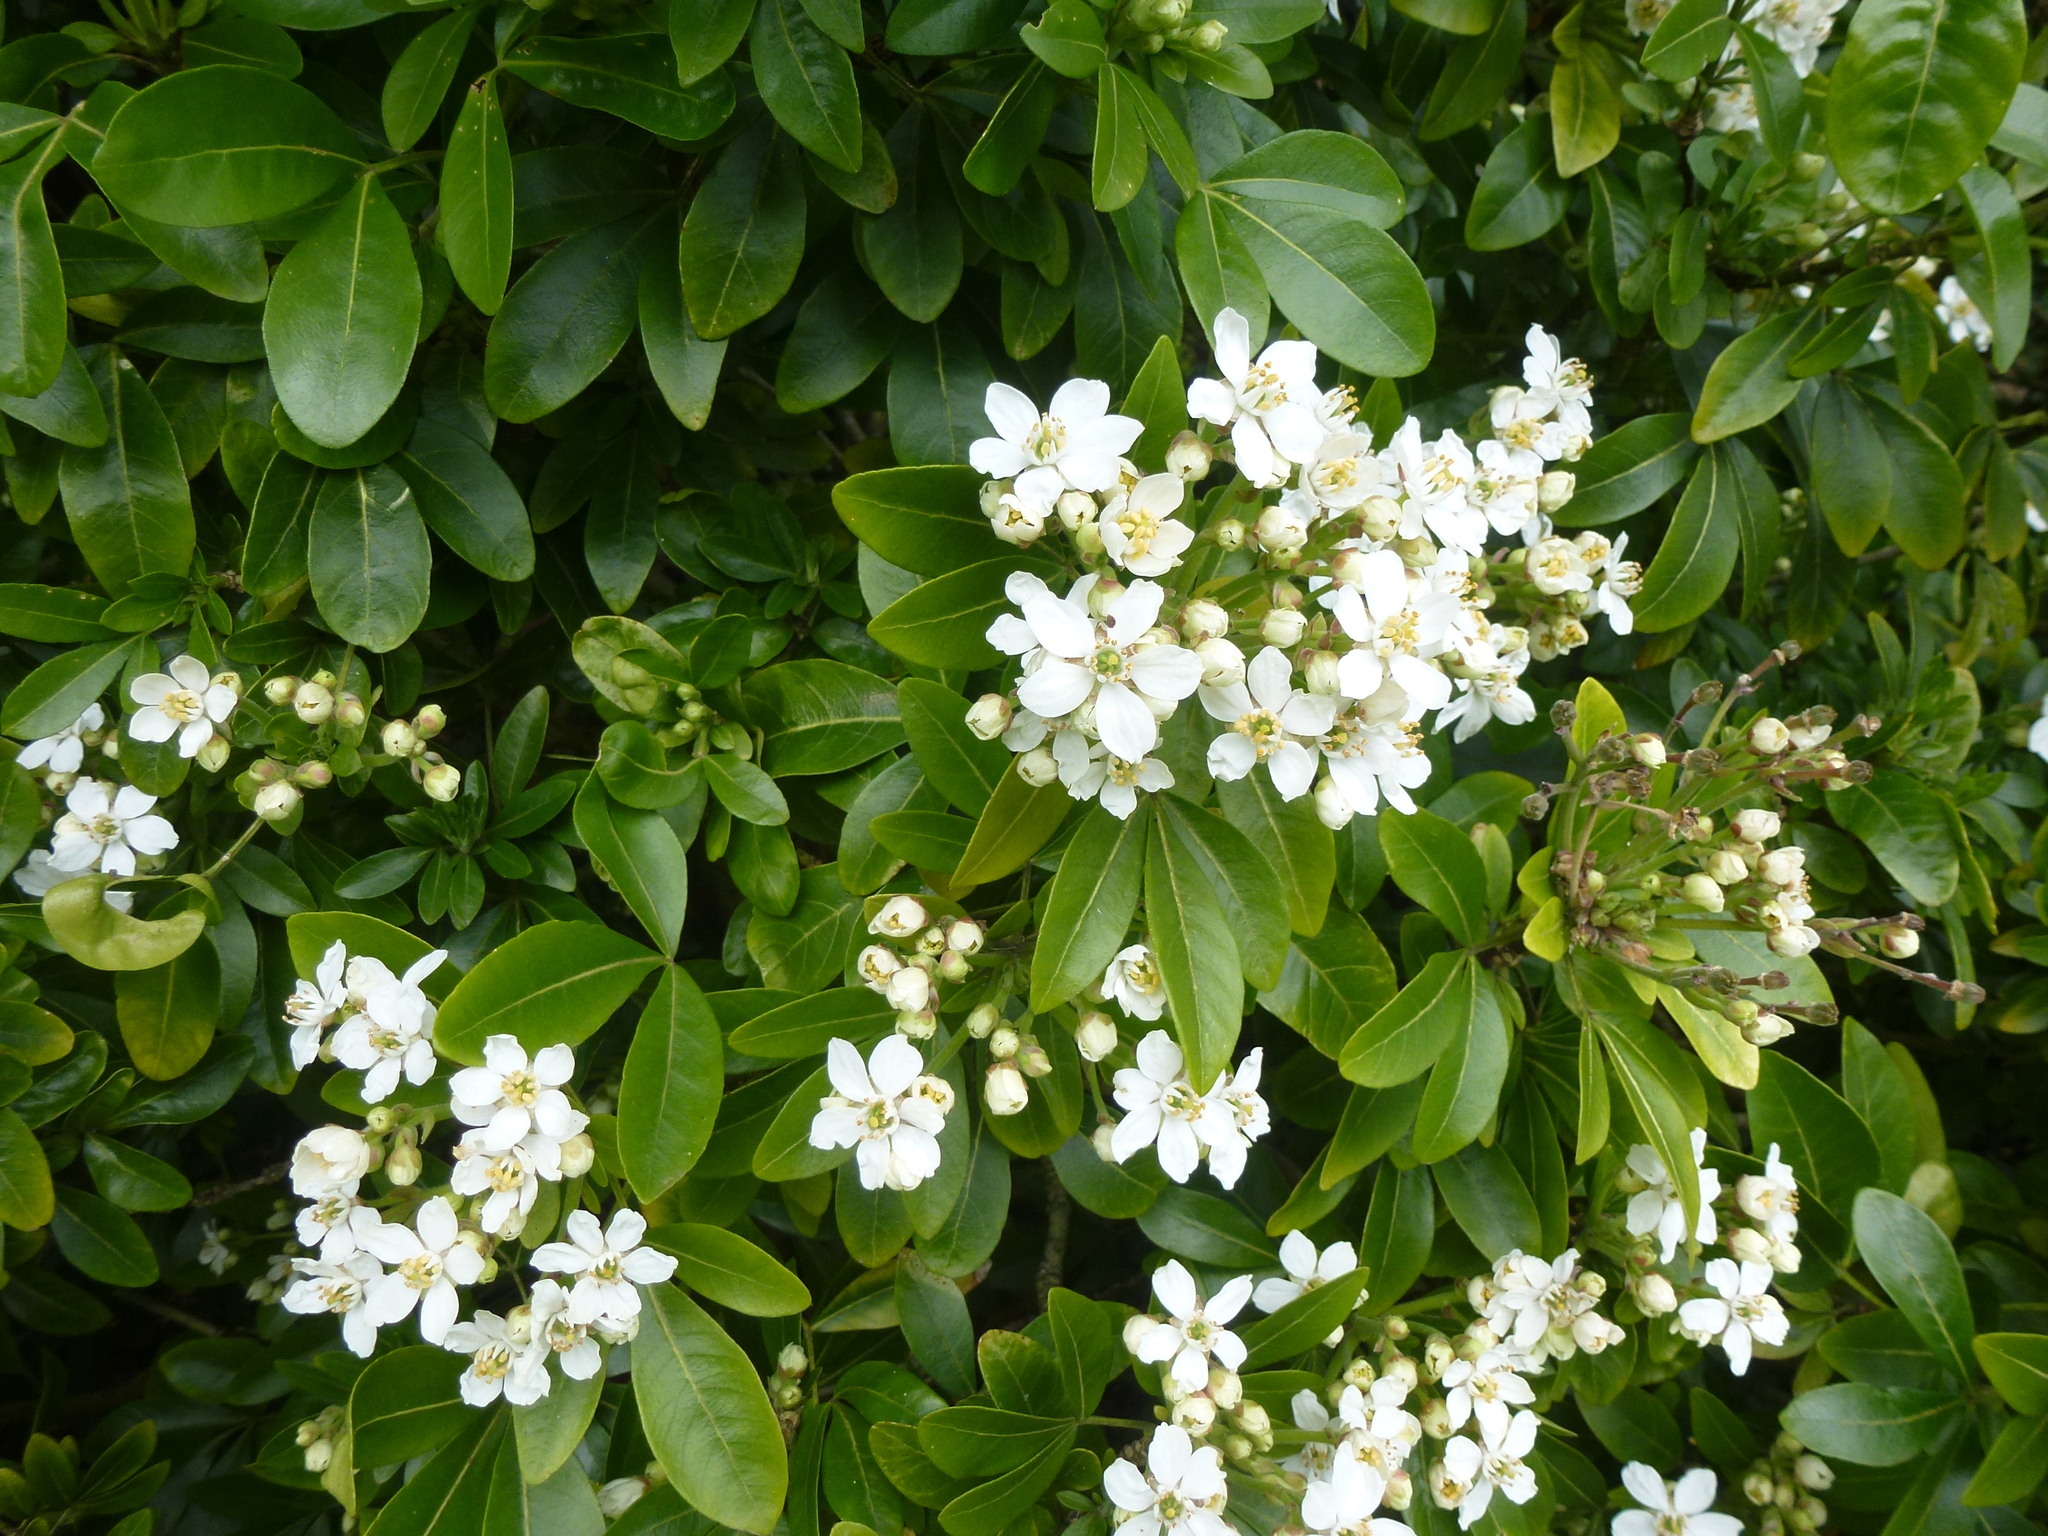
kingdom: Plantae
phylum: Tracheophyta
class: Magnoliopsida
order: Sapindales
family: Rutaceae
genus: Choisya
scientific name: Choisya ternata
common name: Mexican orange
